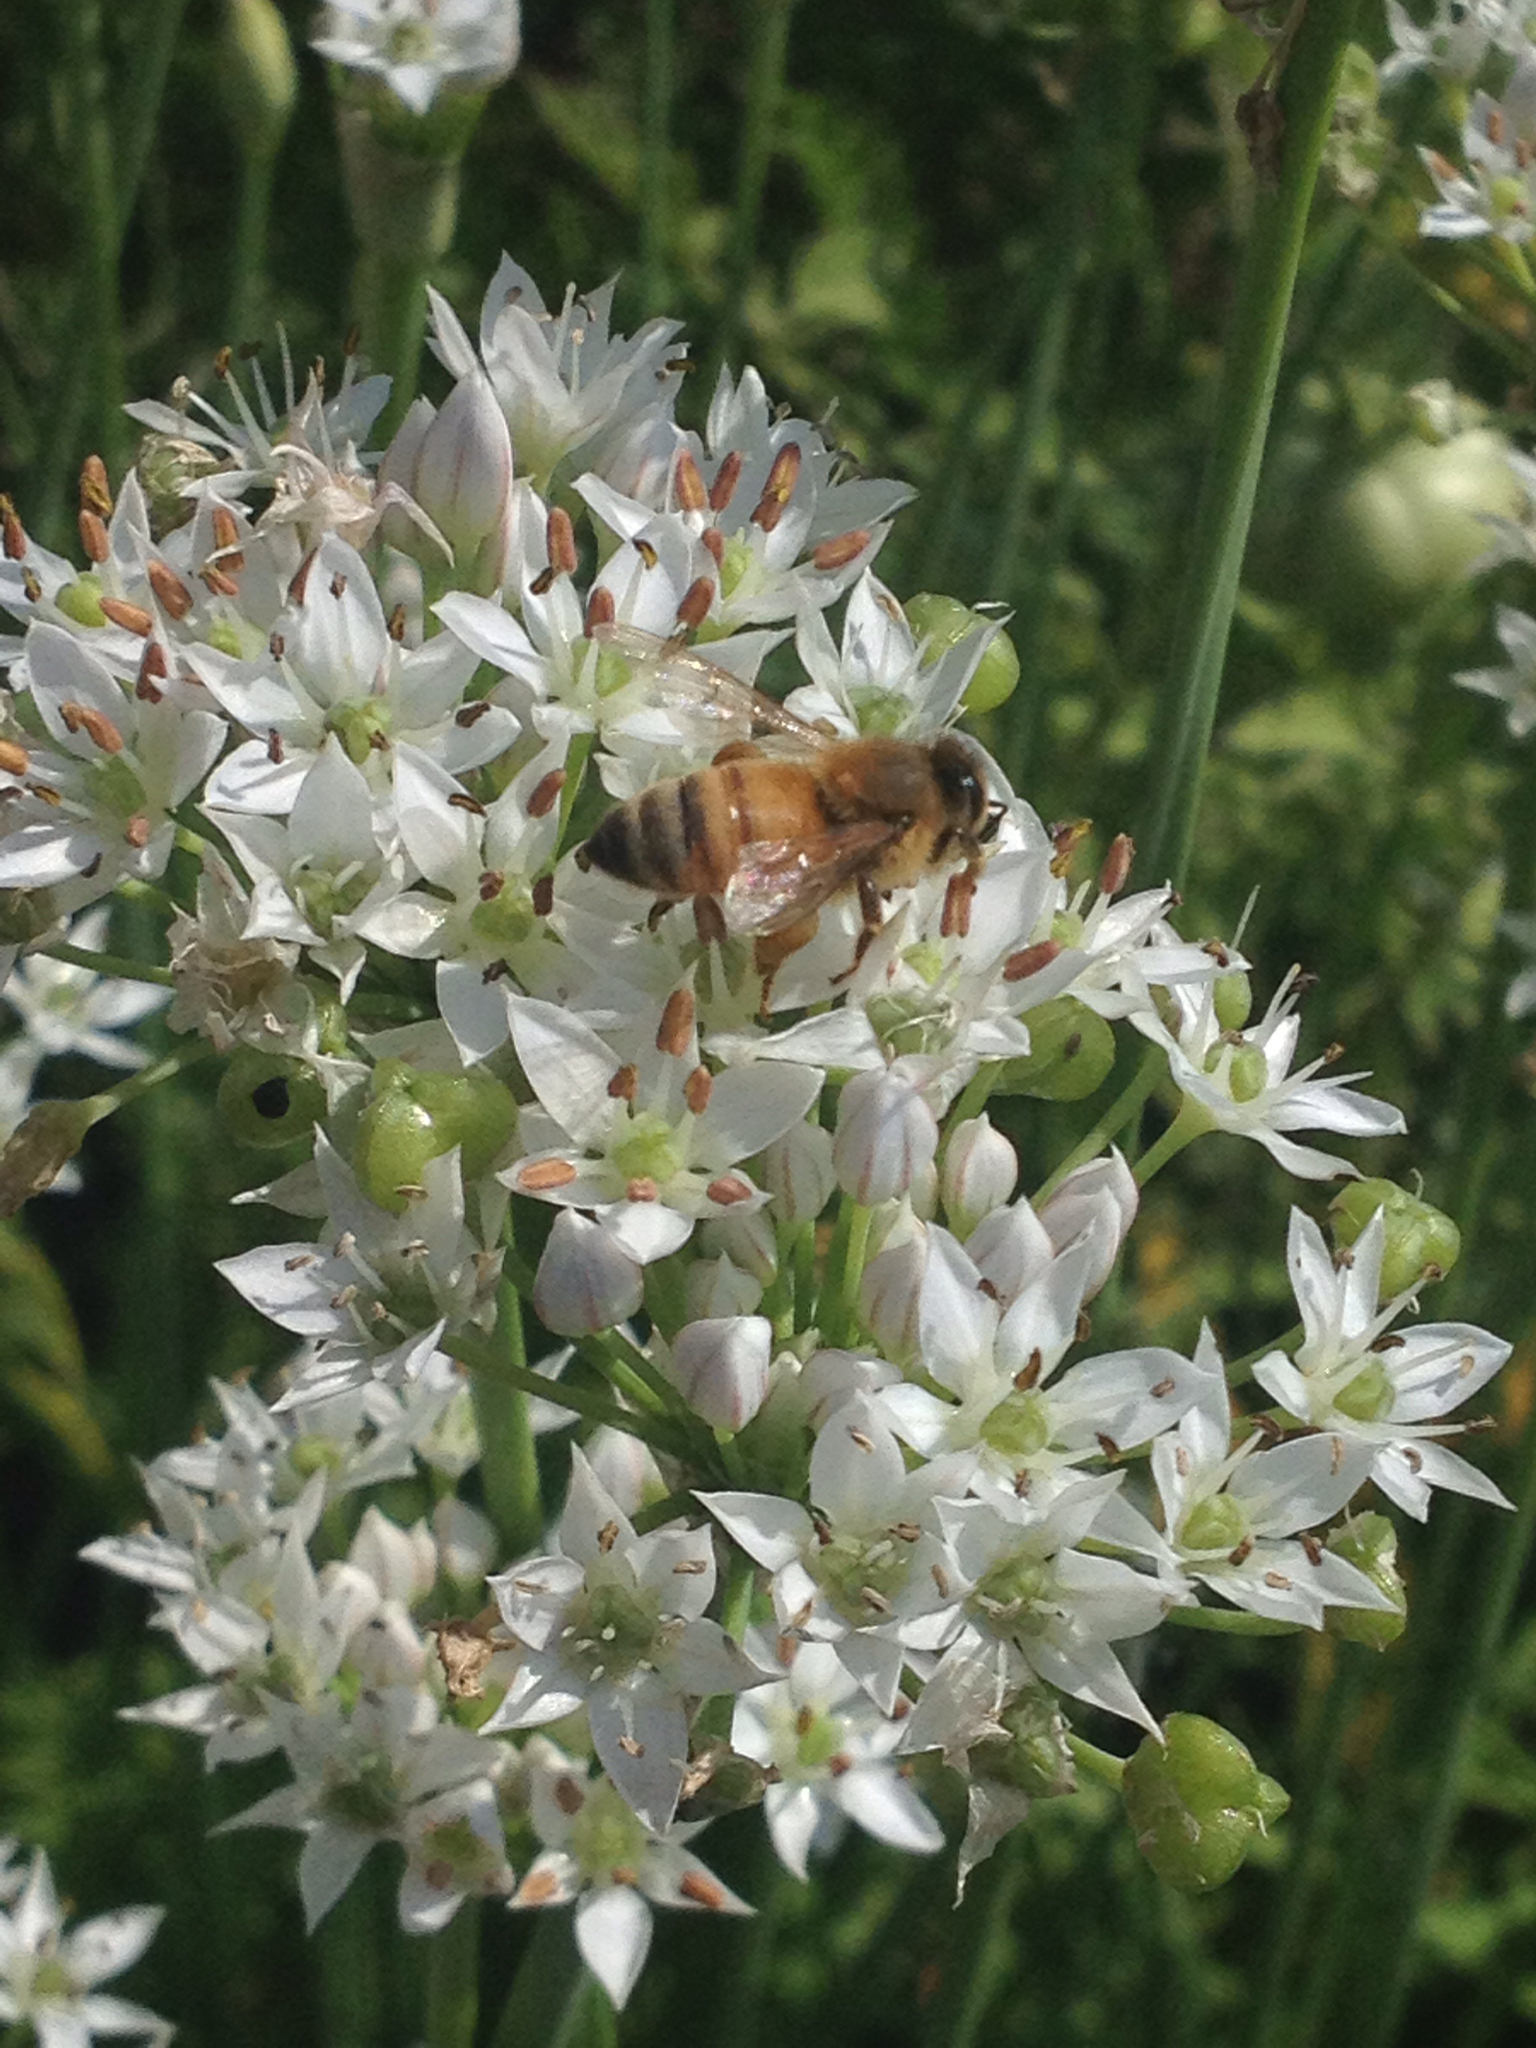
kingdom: Animalia
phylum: Arthropoda
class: Insecta
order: Hymenoptera
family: Apidae
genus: Apis
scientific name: Apis mellifera
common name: Honey bee
